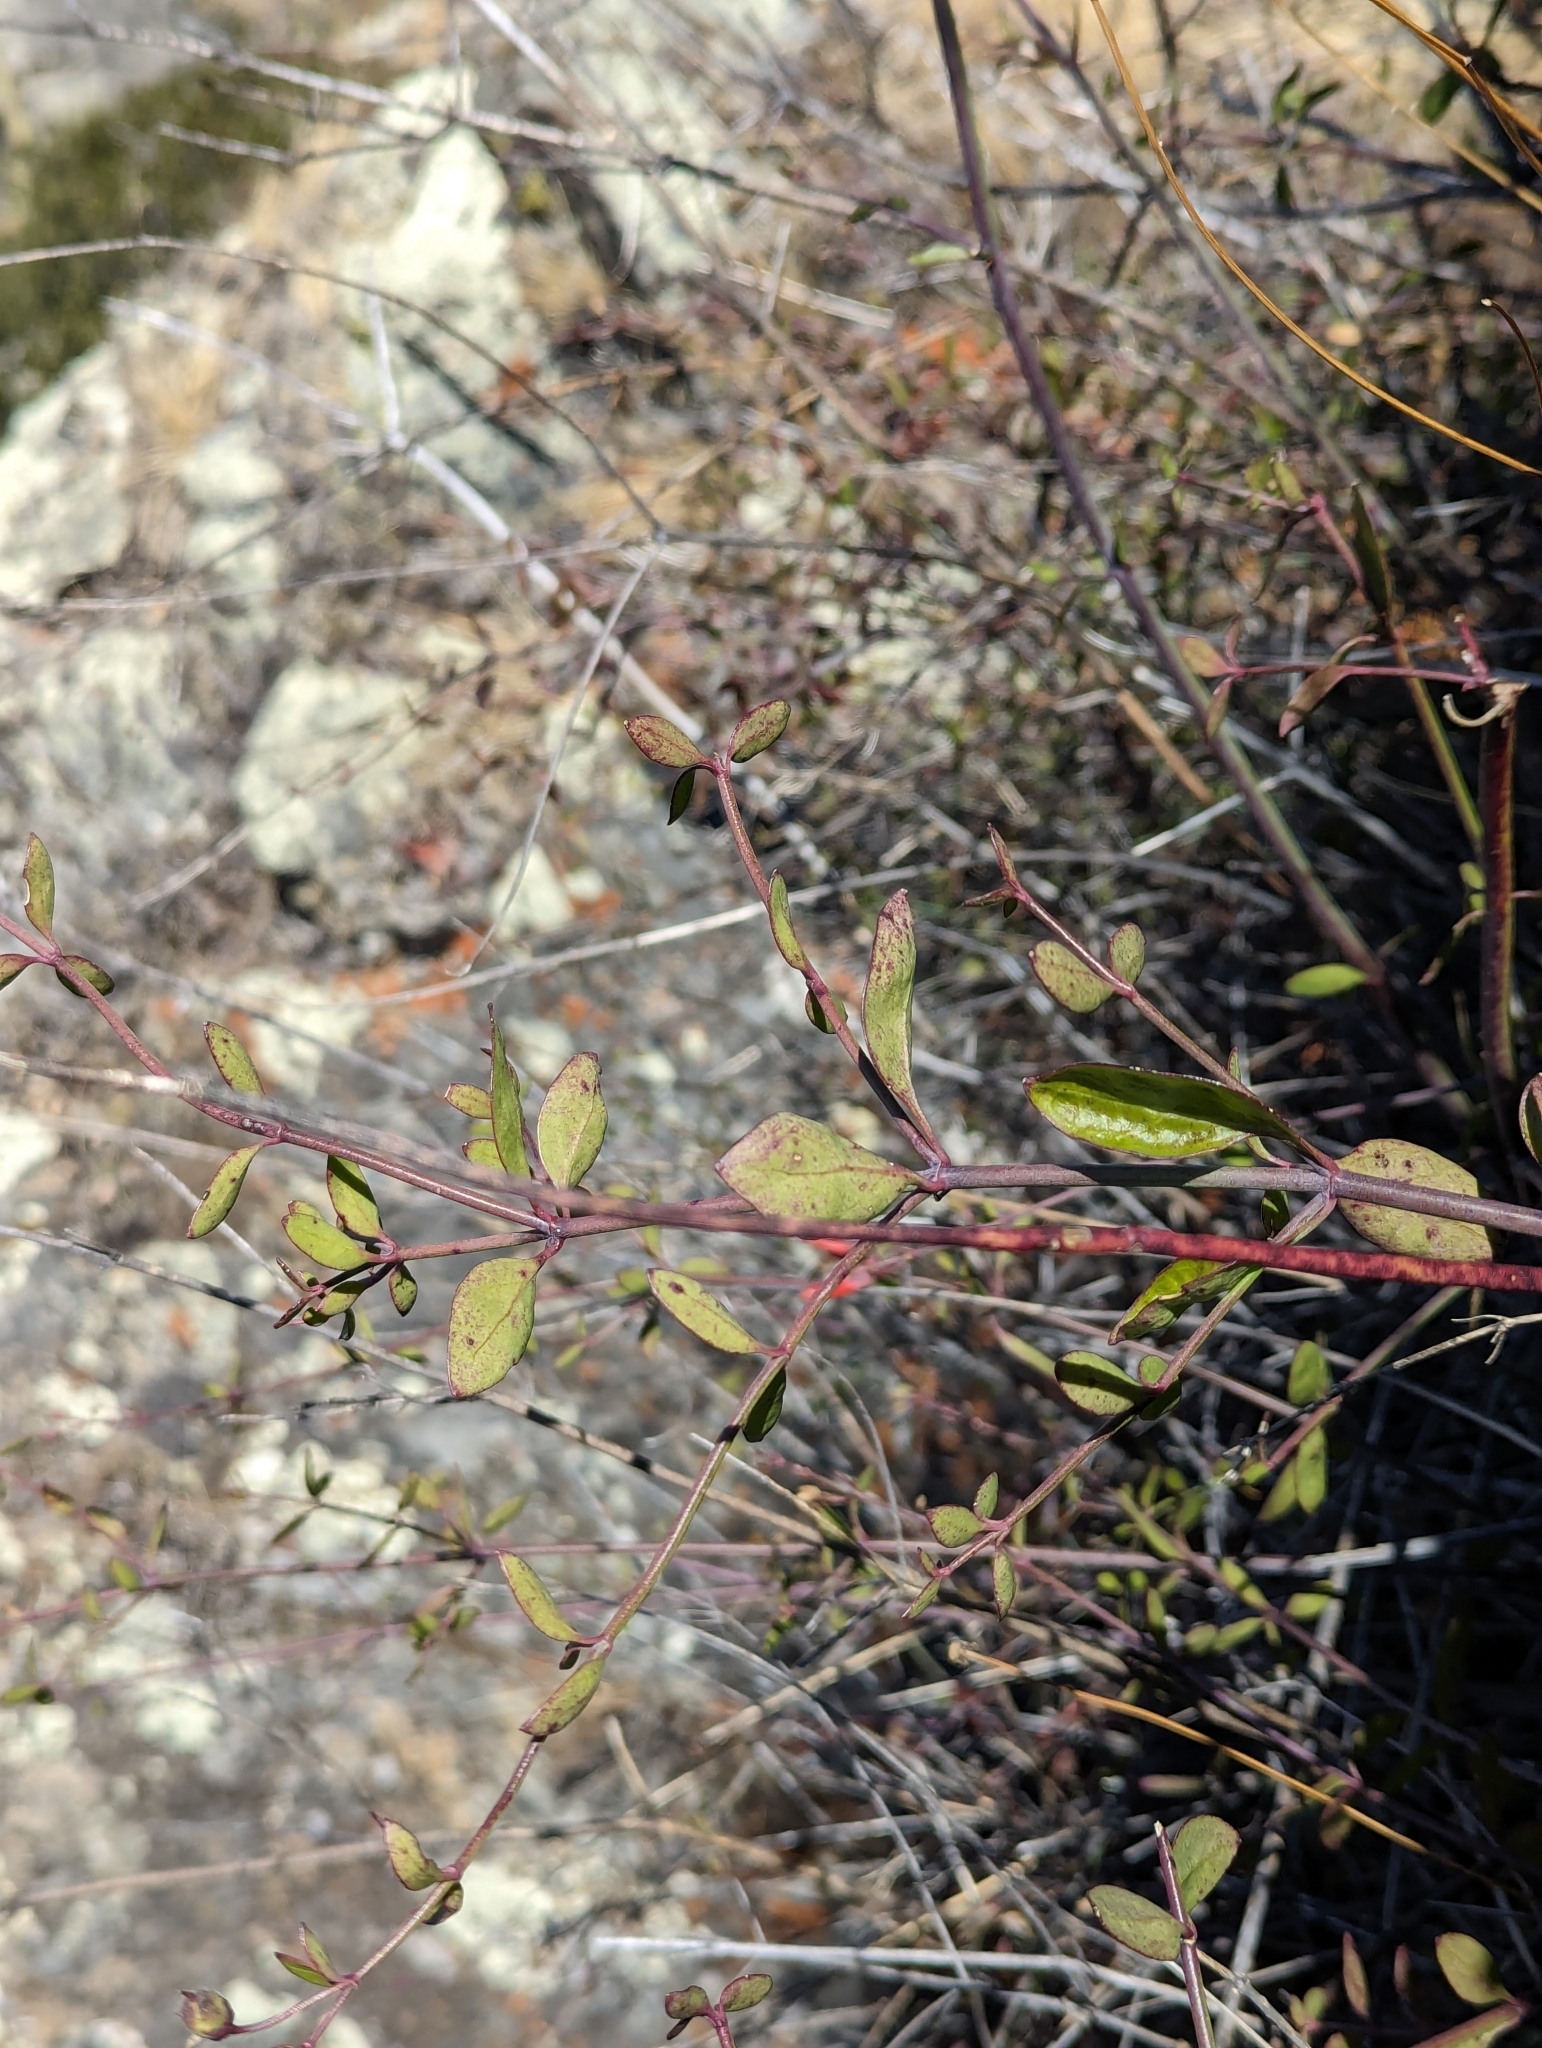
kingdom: Plantae
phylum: Tracheophyta
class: Magnoliopsida
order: Lamiales
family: Plantaginaceae
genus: Gambelia
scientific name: Gambelia juncea
